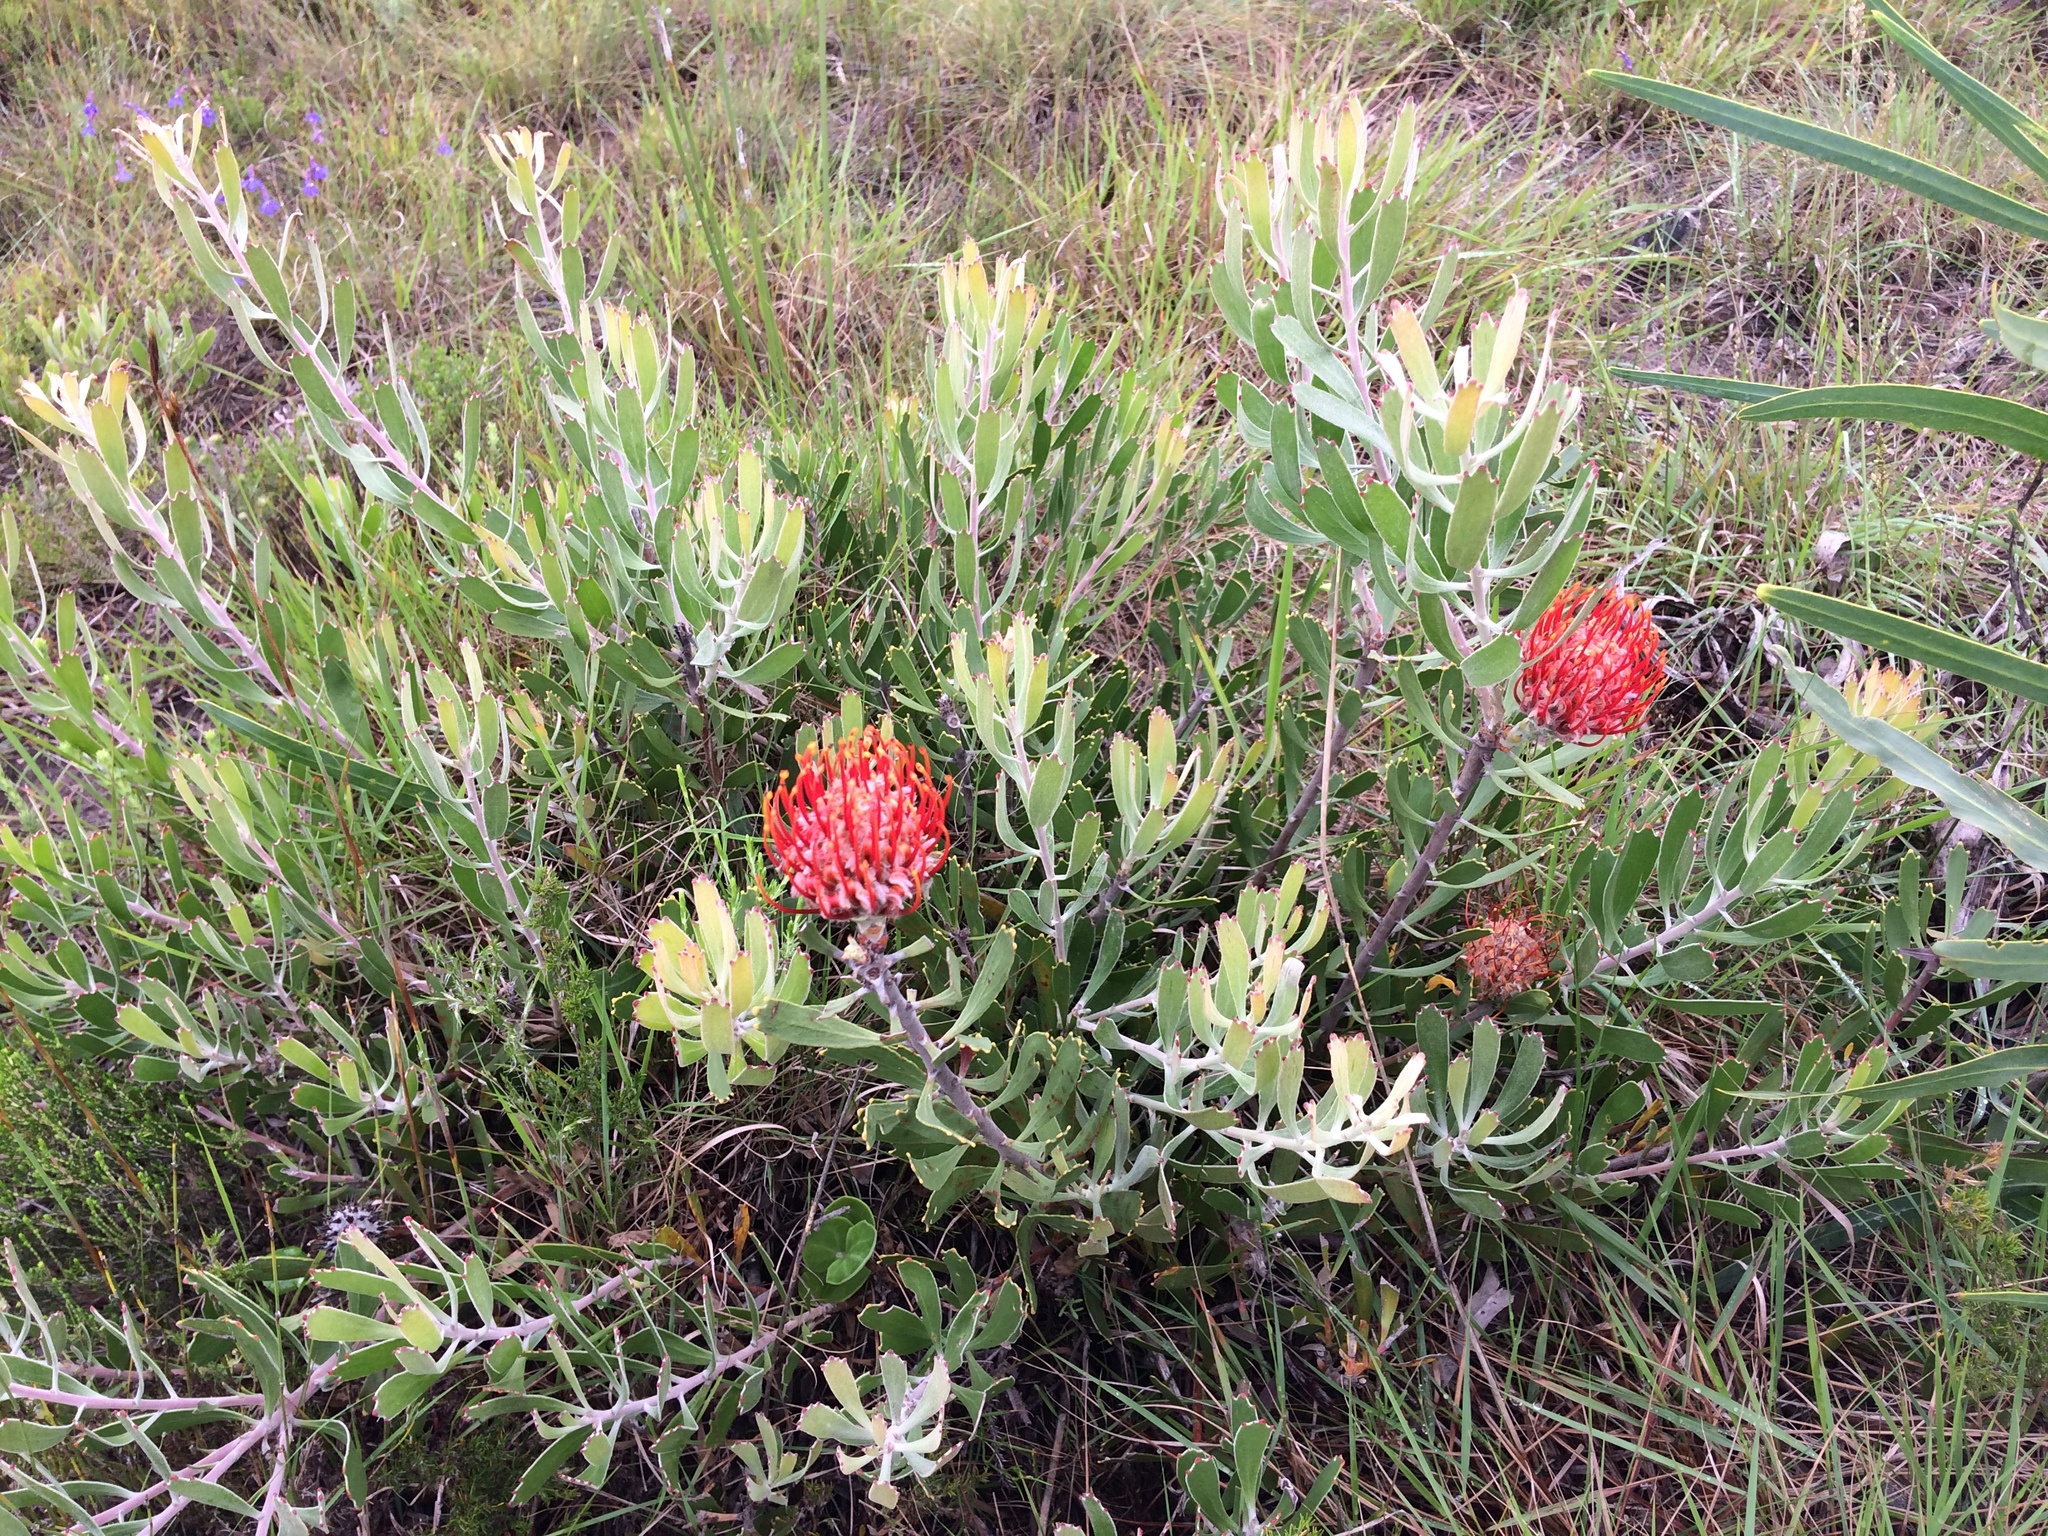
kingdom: Plantae
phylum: Tracheophyta
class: Magnoliopsida
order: Proteales
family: Proteaceae
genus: Leucospermum
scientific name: Leucospermum cuneiforme
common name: Common pincushion
